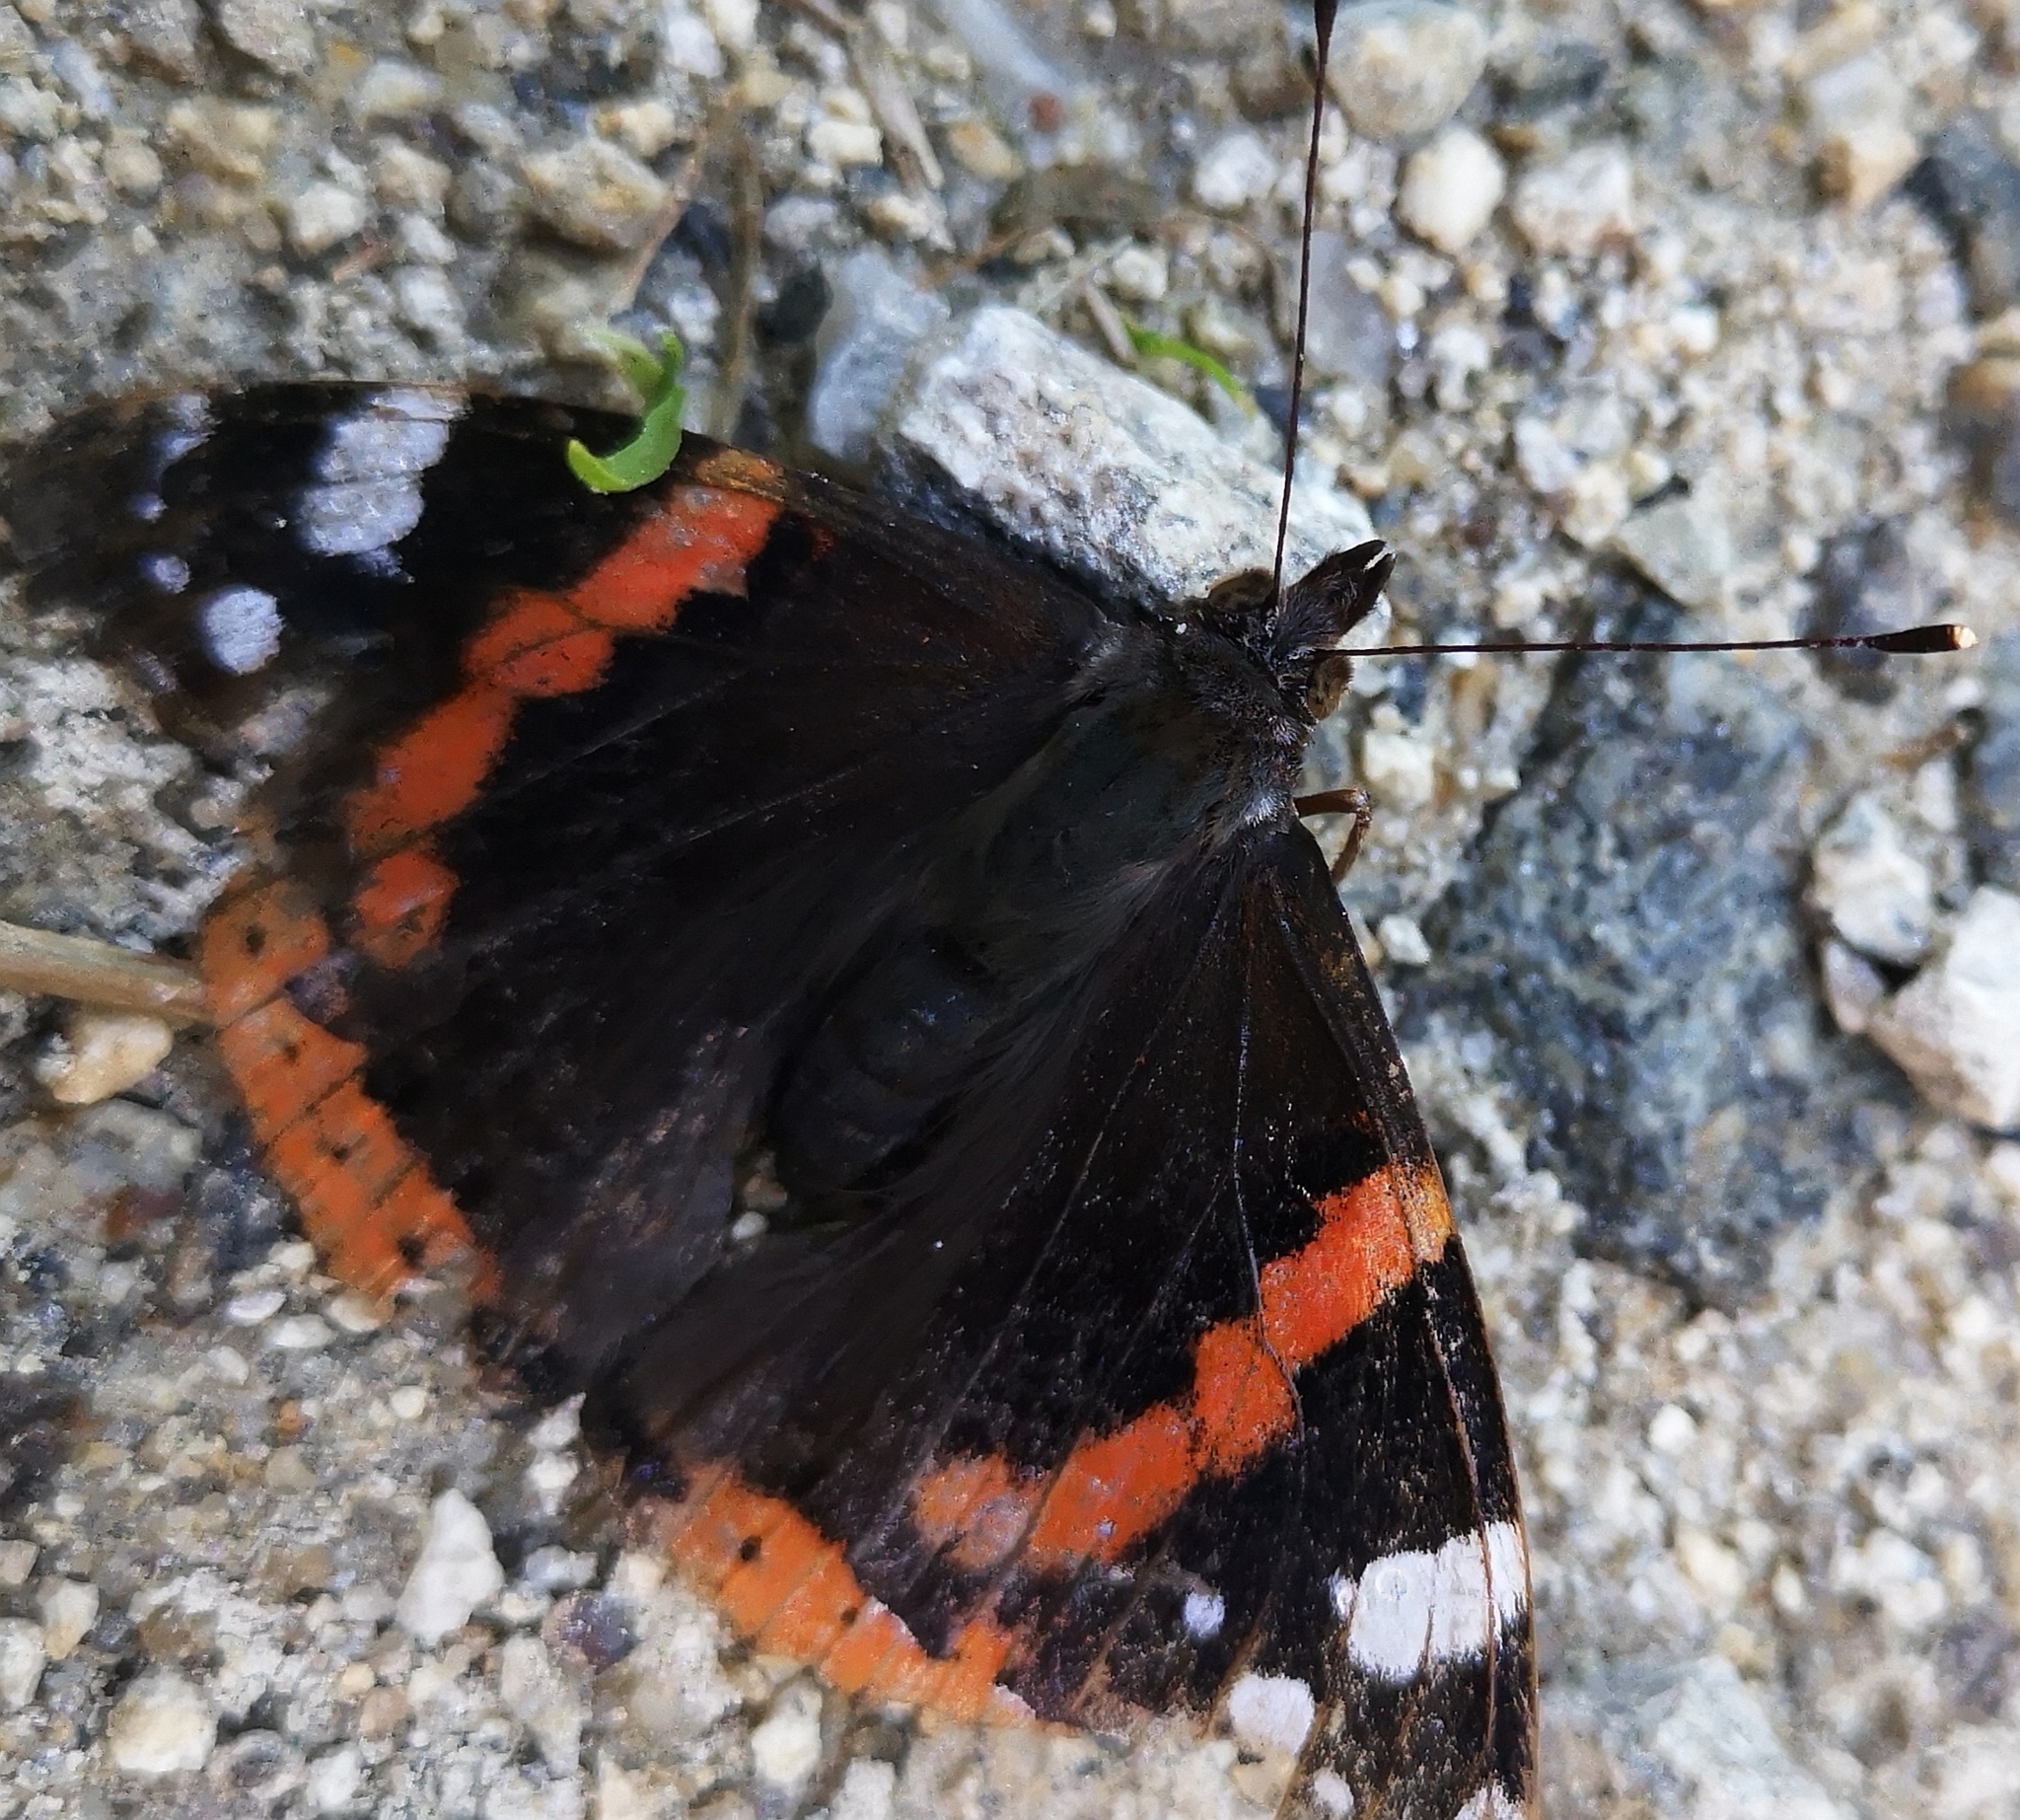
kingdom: Animalia
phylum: Arthropoda
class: Insecta
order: Lepidoptera
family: Nymphalidae
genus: Vanessa
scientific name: Vanessa atalanta
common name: Red admiral
